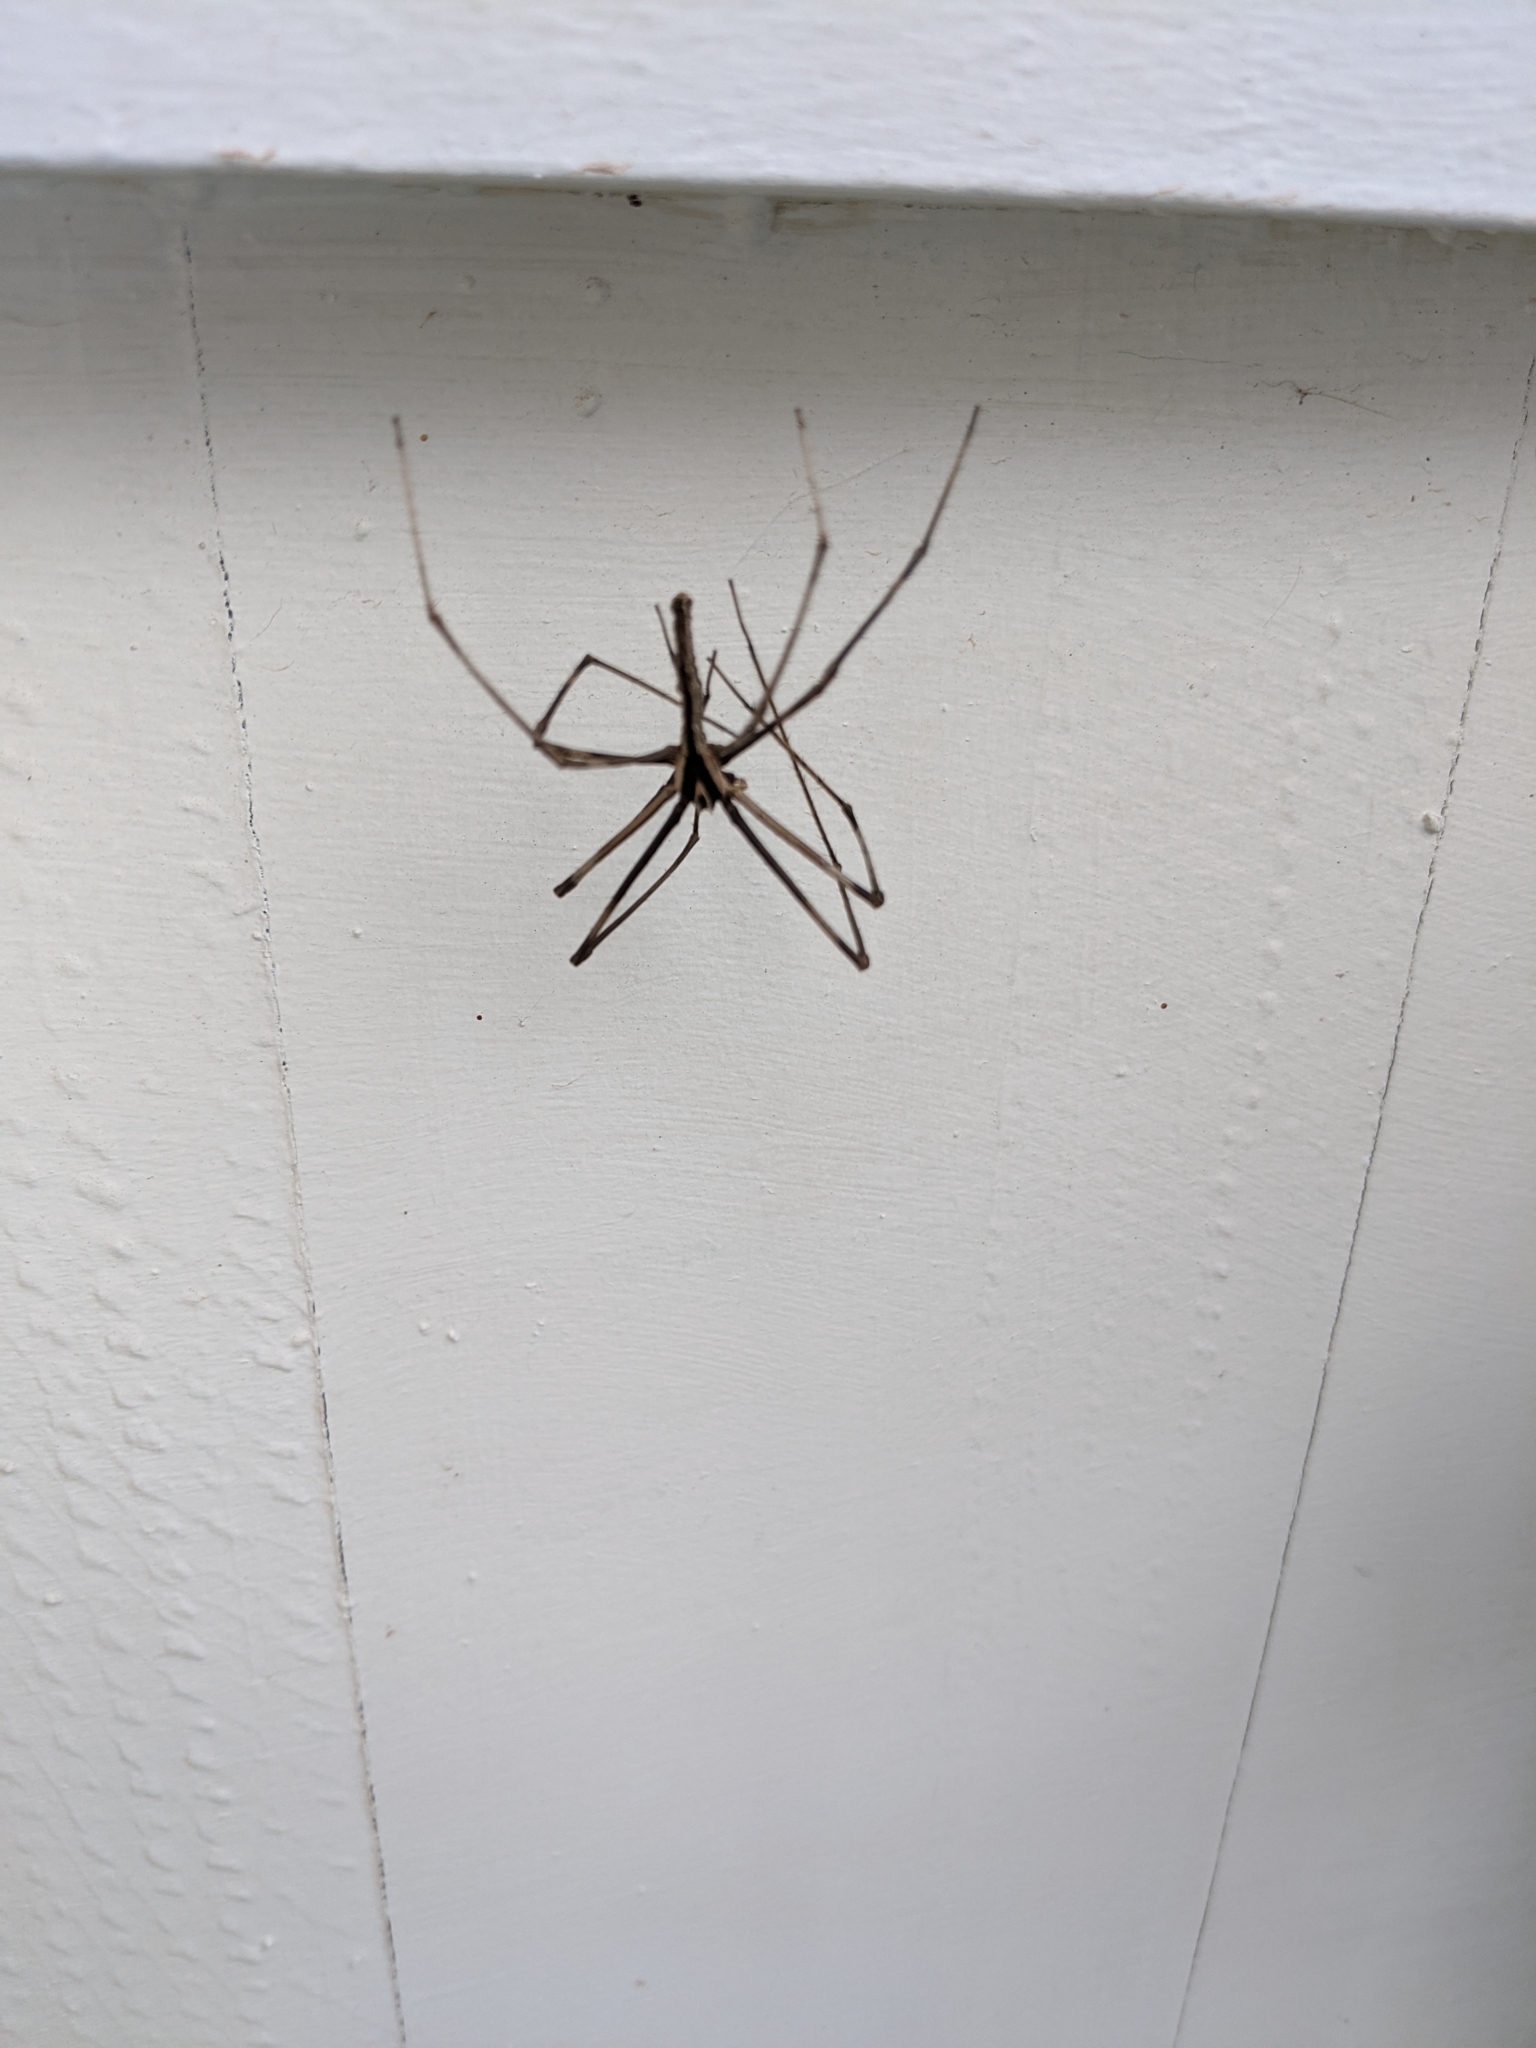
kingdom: Animalia
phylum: Arthropoda
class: Arachnida
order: Araneae
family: Deinopidae
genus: Deinopis
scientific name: Deinopis subrufa
